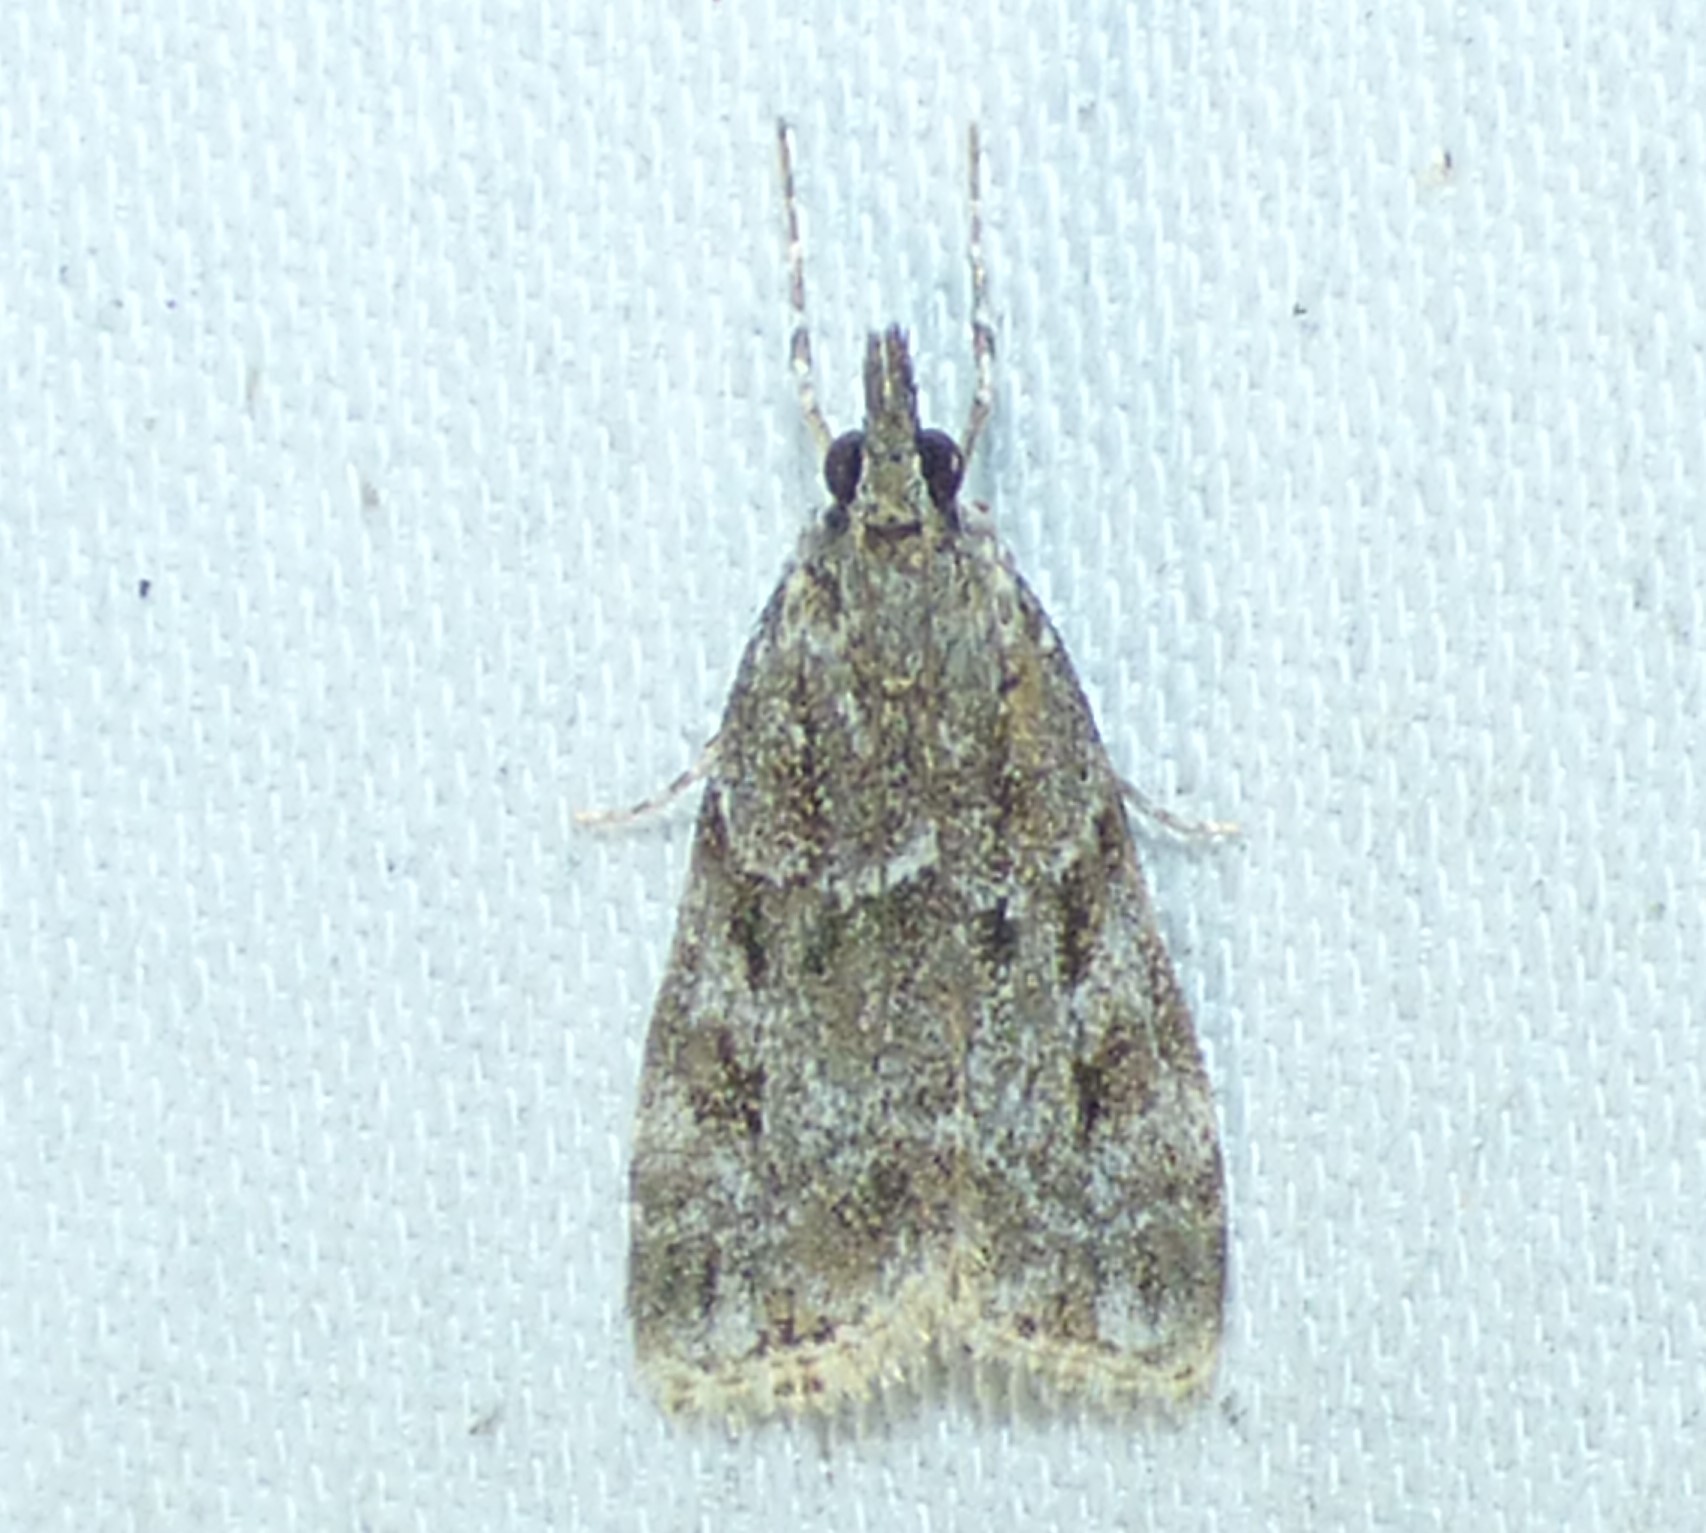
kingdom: Animalia
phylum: Arthropoda
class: Insecta
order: Lepidoptera
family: Crambidae
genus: Eudonia
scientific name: Eudonia heterosalis
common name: Mcdunnough's eudonia
